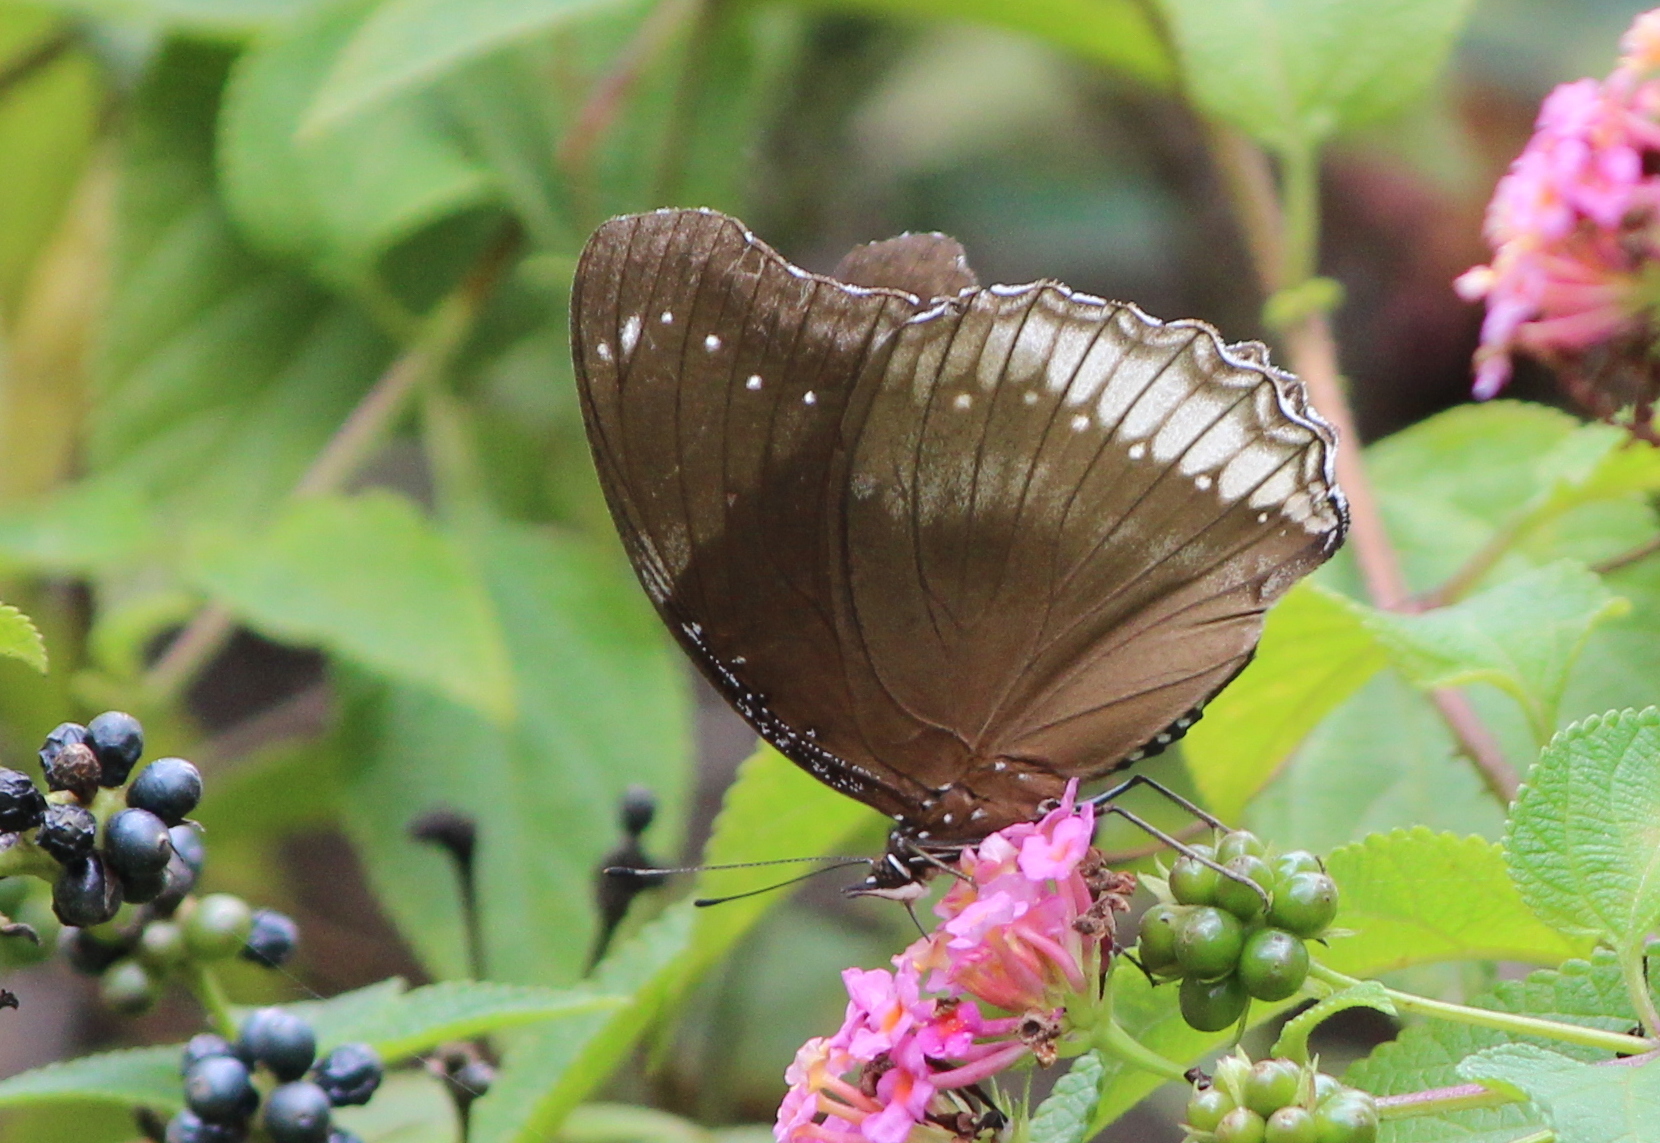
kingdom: Animalia
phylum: Arthropoda
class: Insecta
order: Lepidoptera
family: Nymphalidae
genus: Hypolimnas
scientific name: Hypolimnas bolina
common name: Great eggfly
